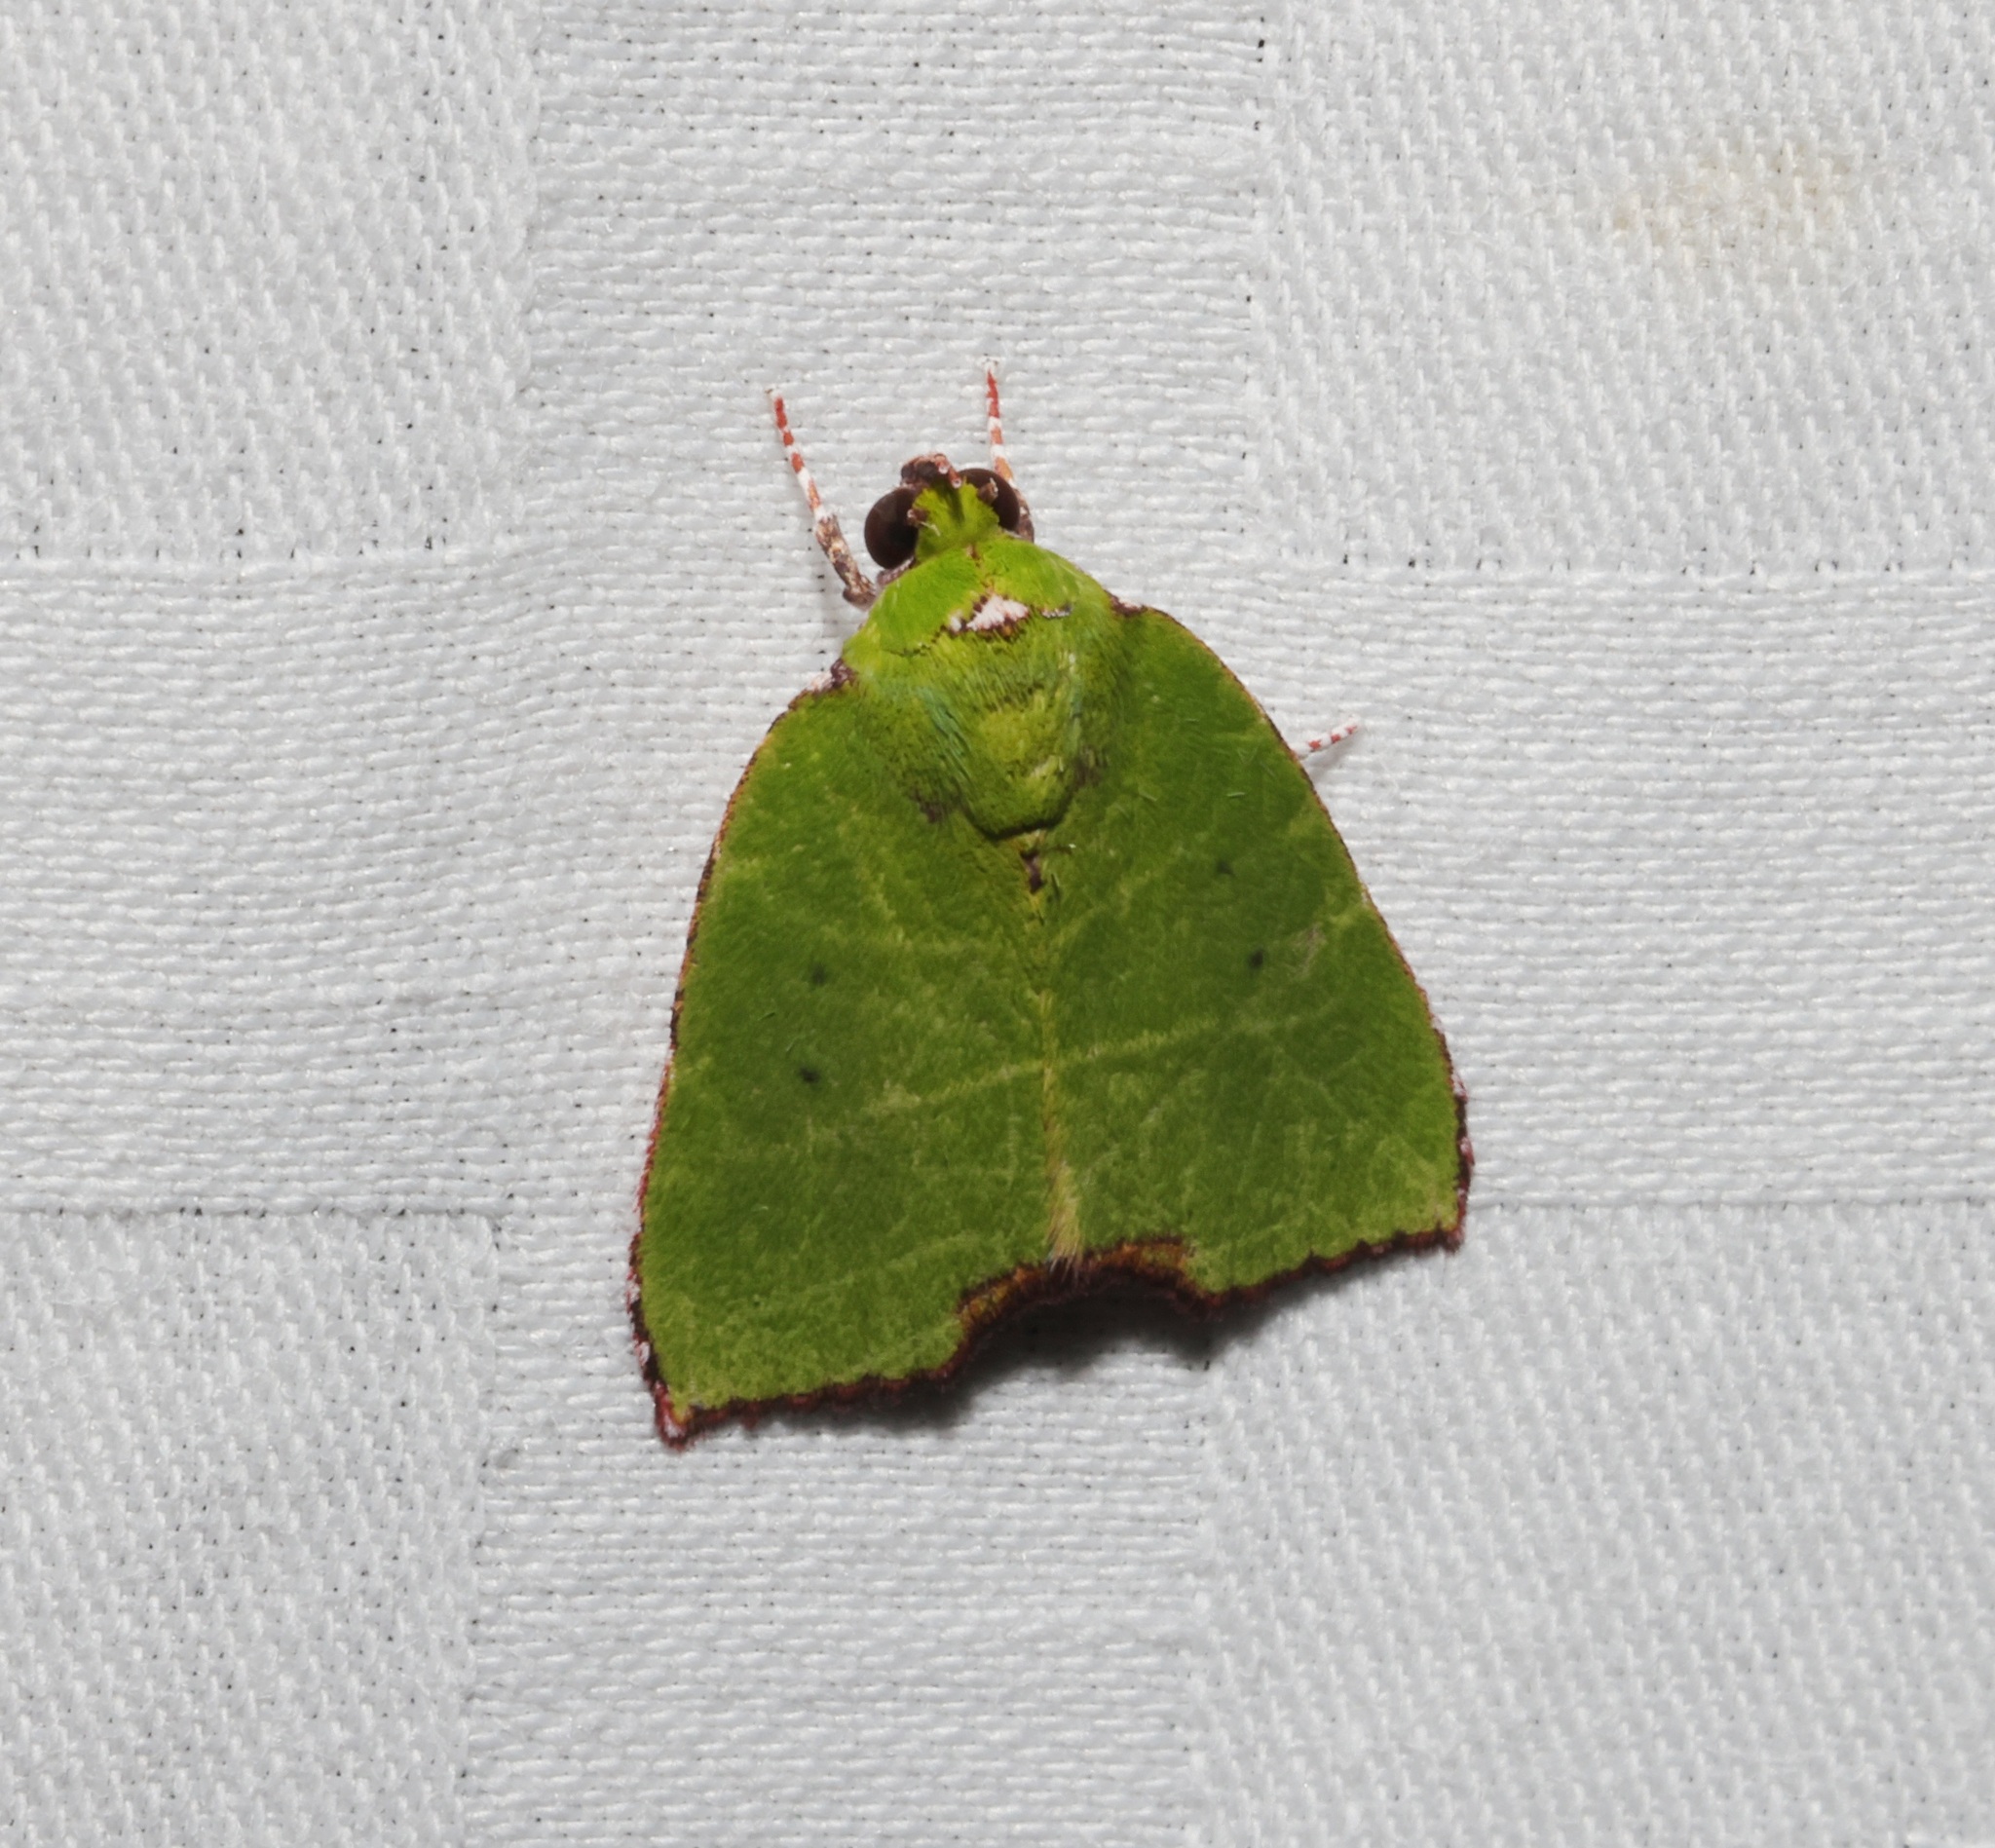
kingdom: Animalia
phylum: Arthropoda
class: Insecta
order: Lepidoptera
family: Nolidae
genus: Paracrama
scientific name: Paracrama angulata
